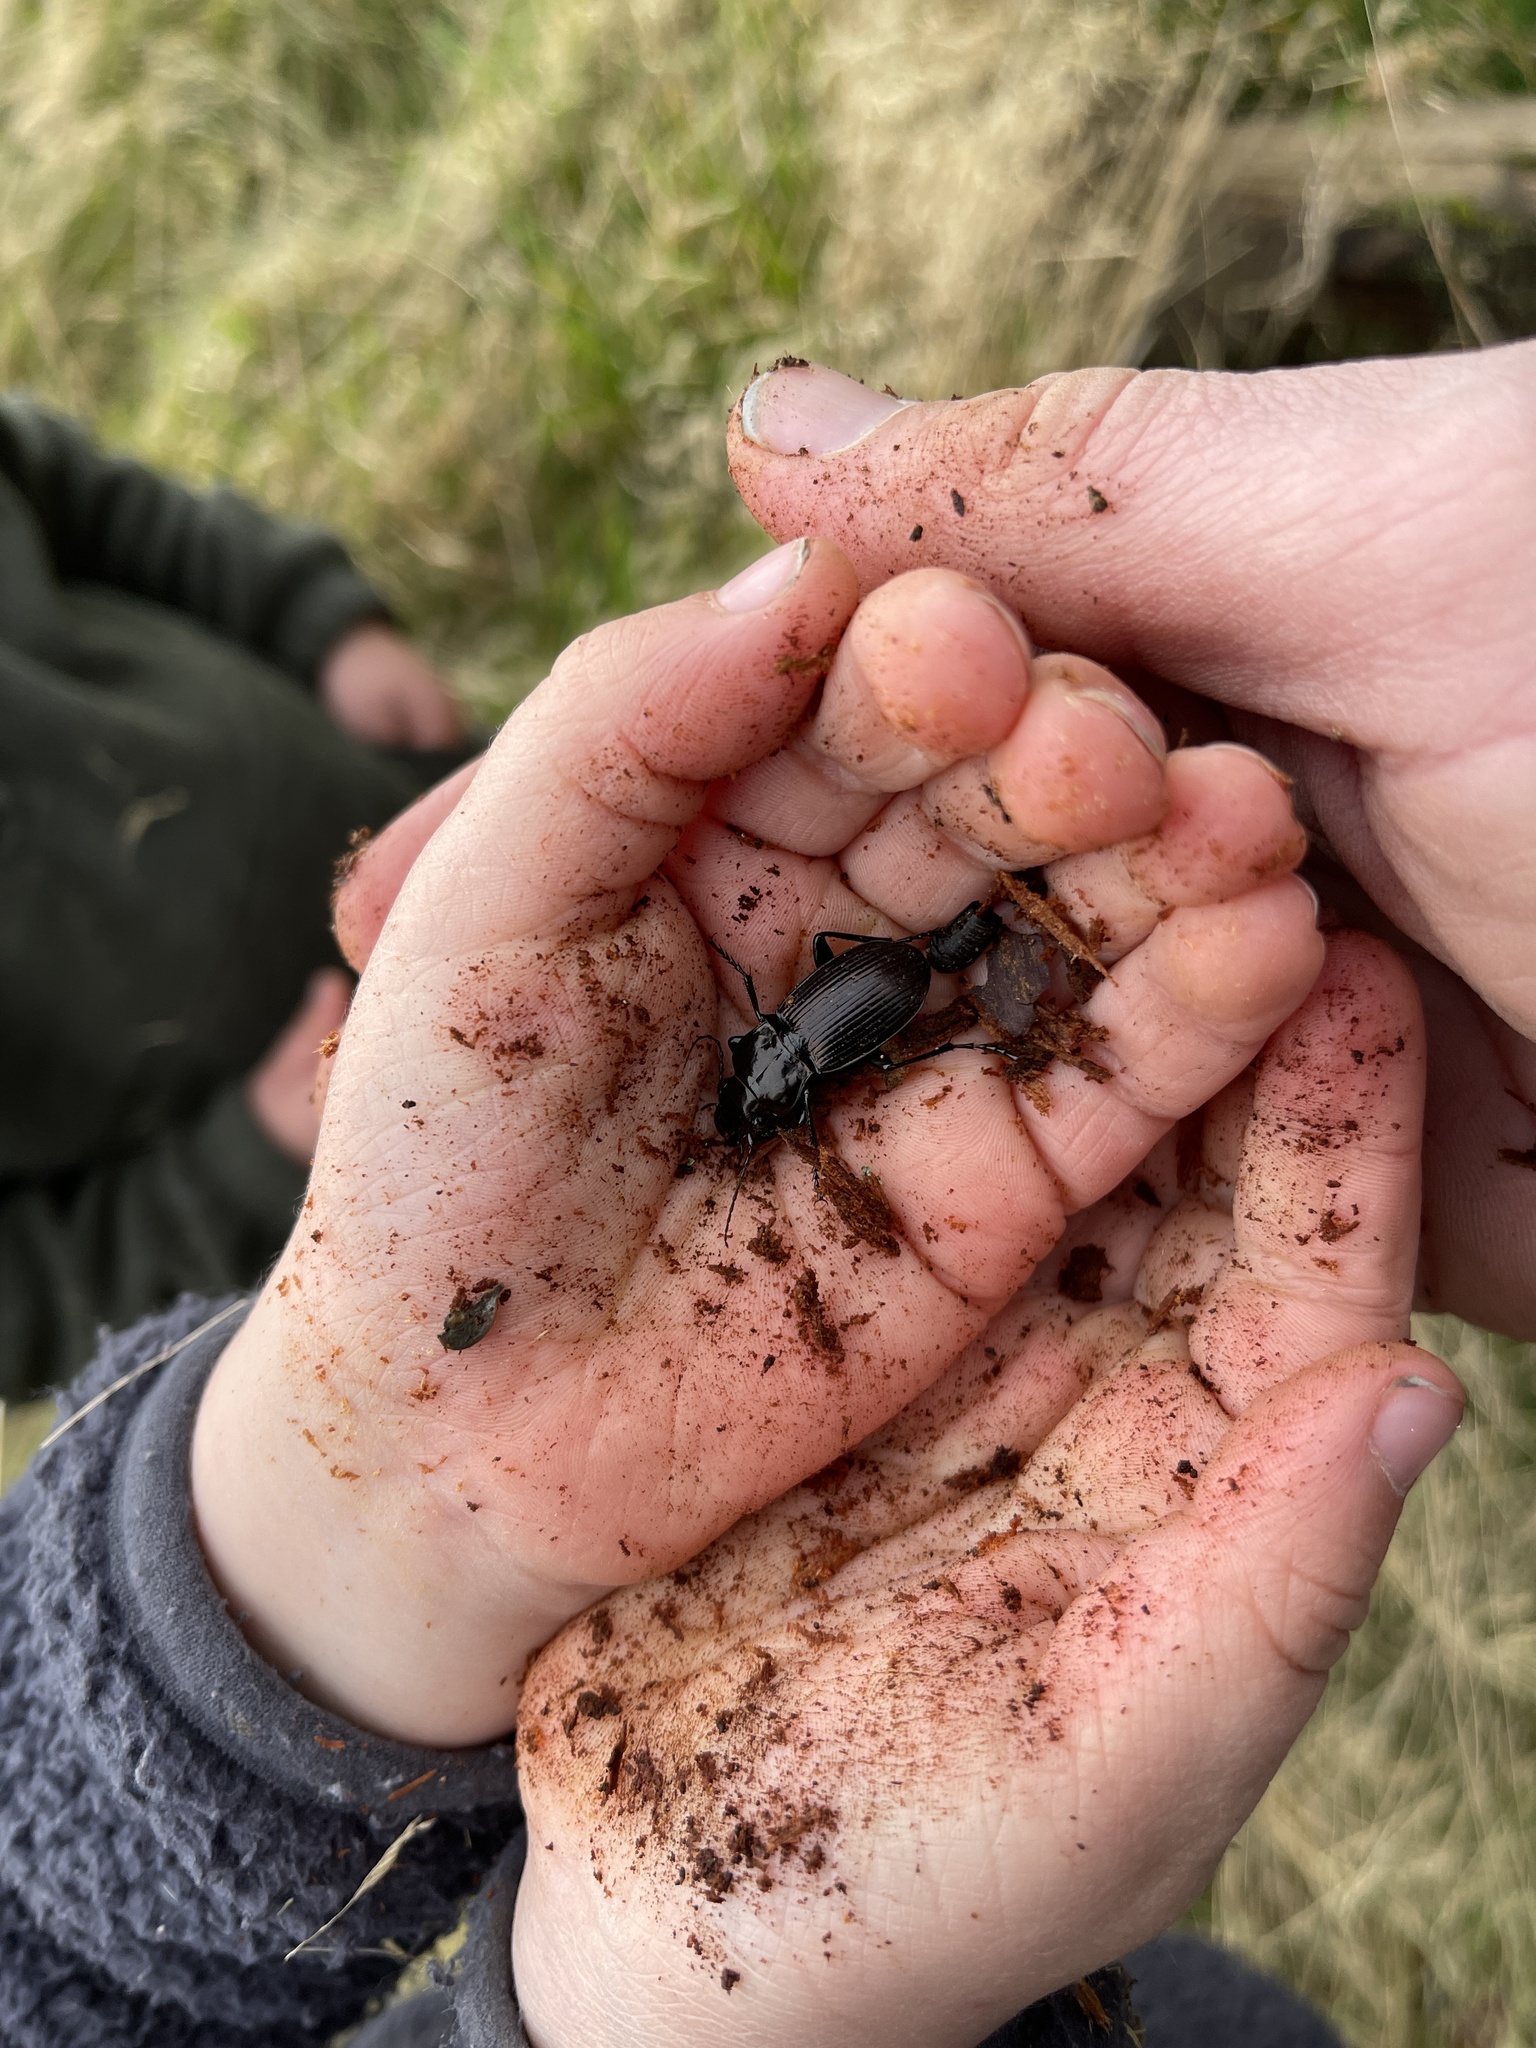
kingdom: Animalia
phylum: Arthropoda
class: Insecta
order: Coleoptera
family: Carabidae
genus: Megadromus
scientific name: Megadromus guerinii
